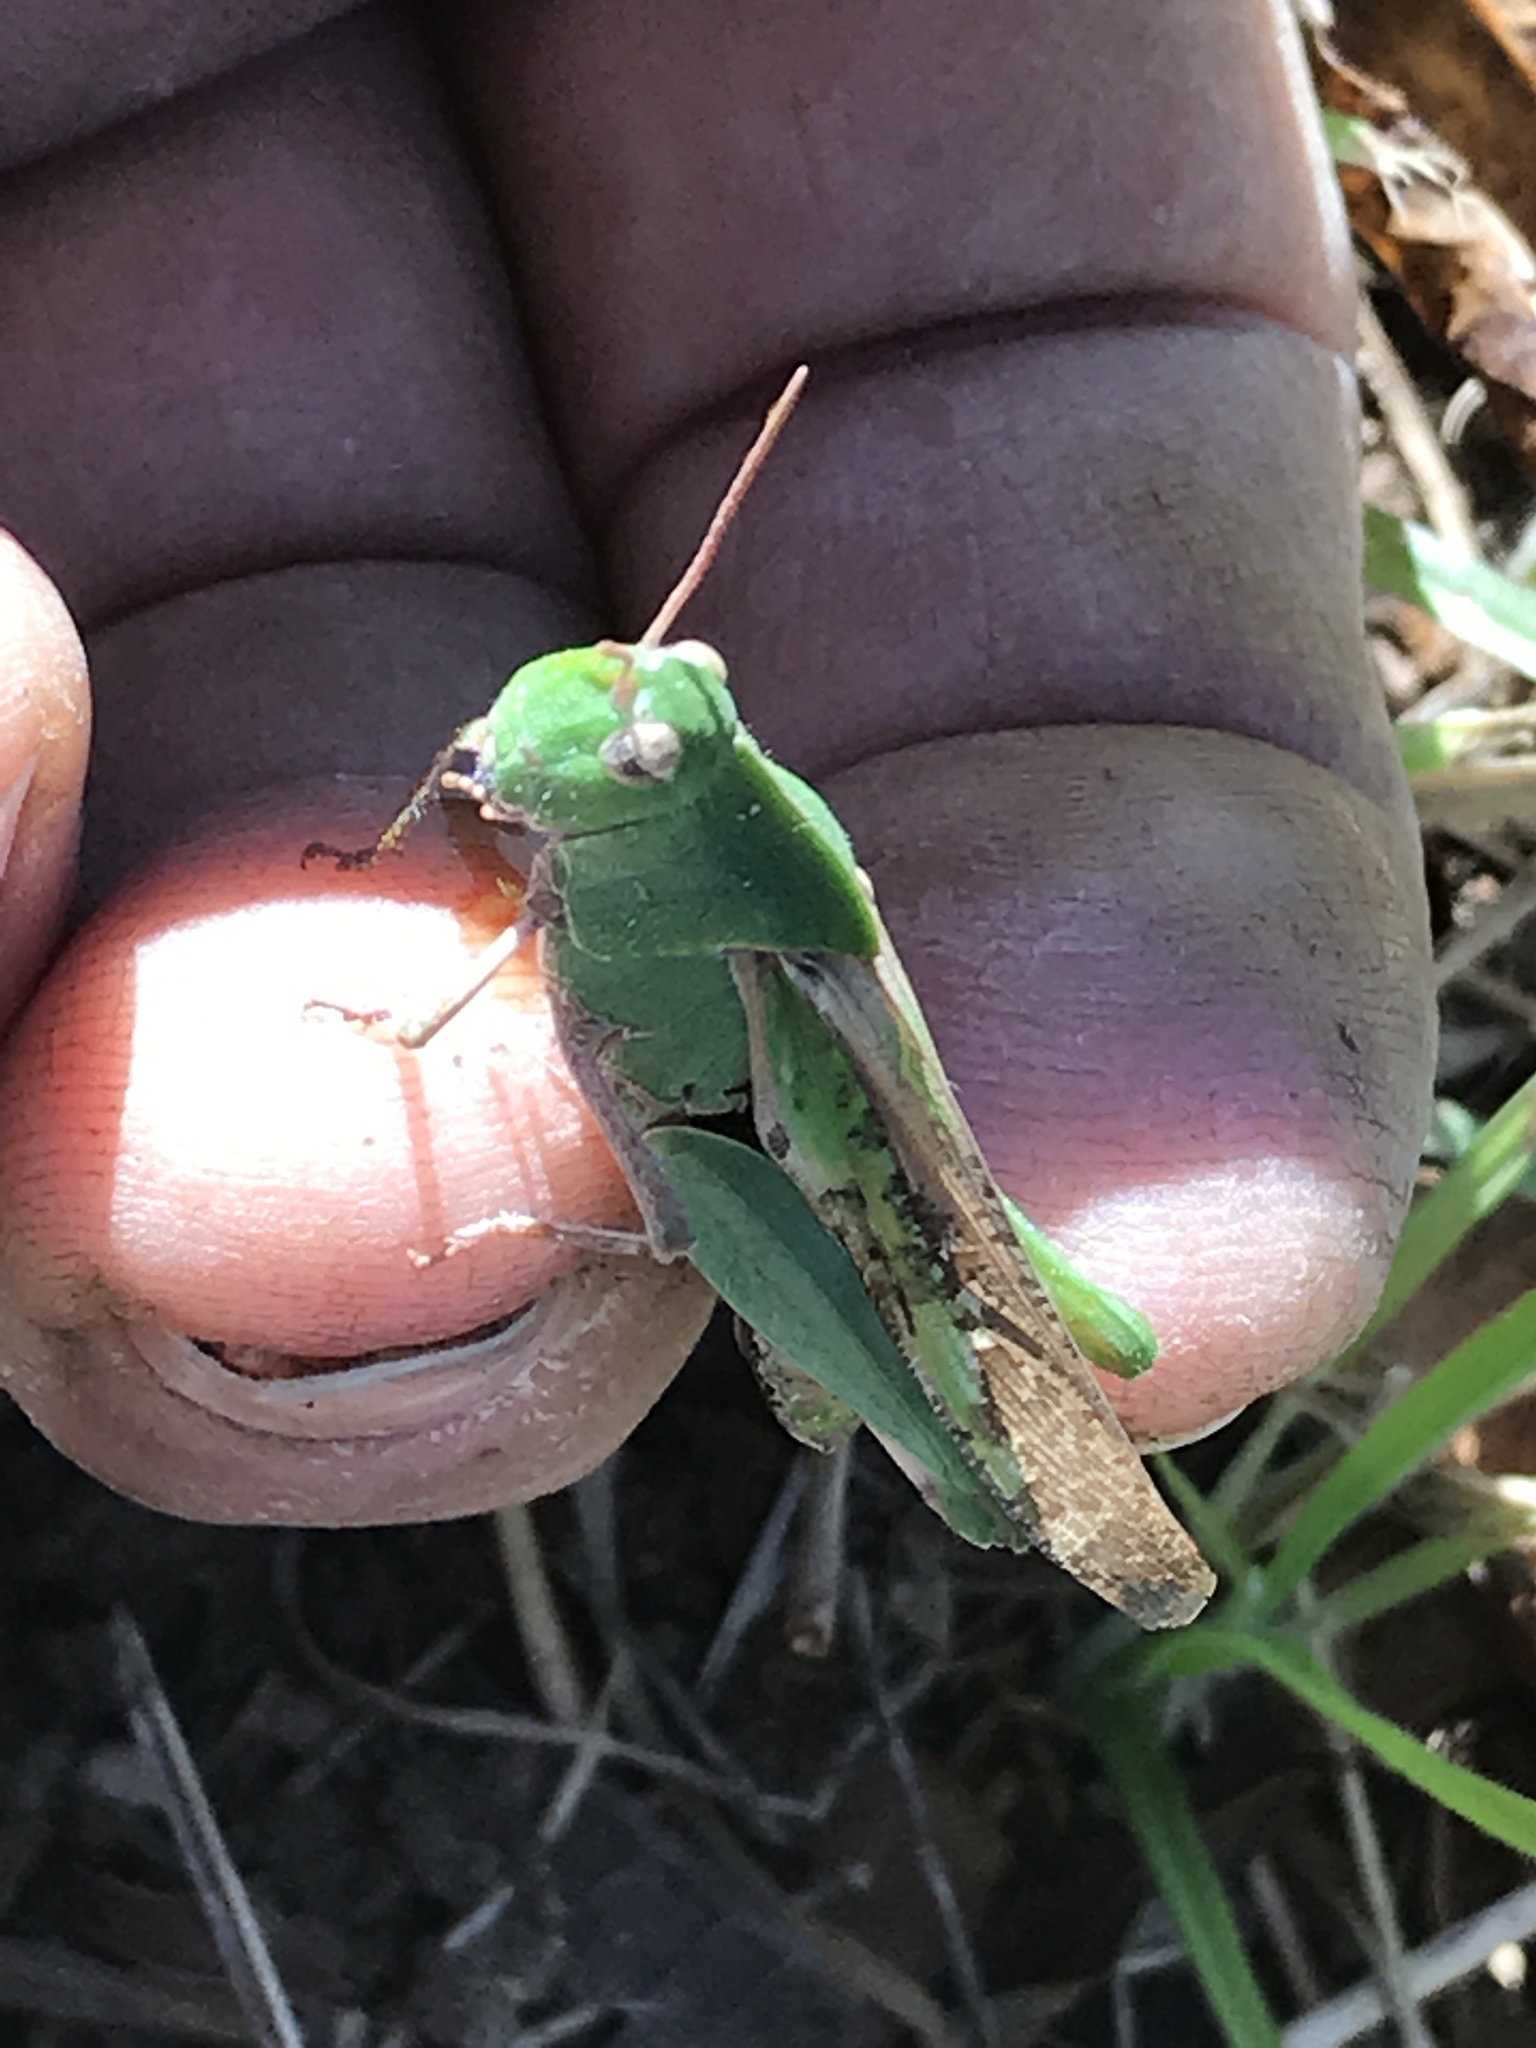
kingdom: Animalia
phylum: Arthropoda
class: Insecta
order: Orthoptera
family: Acrididae
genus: Chortophaga
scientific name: Chortophaga viridifasciata
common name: Green-striped grasshopper
